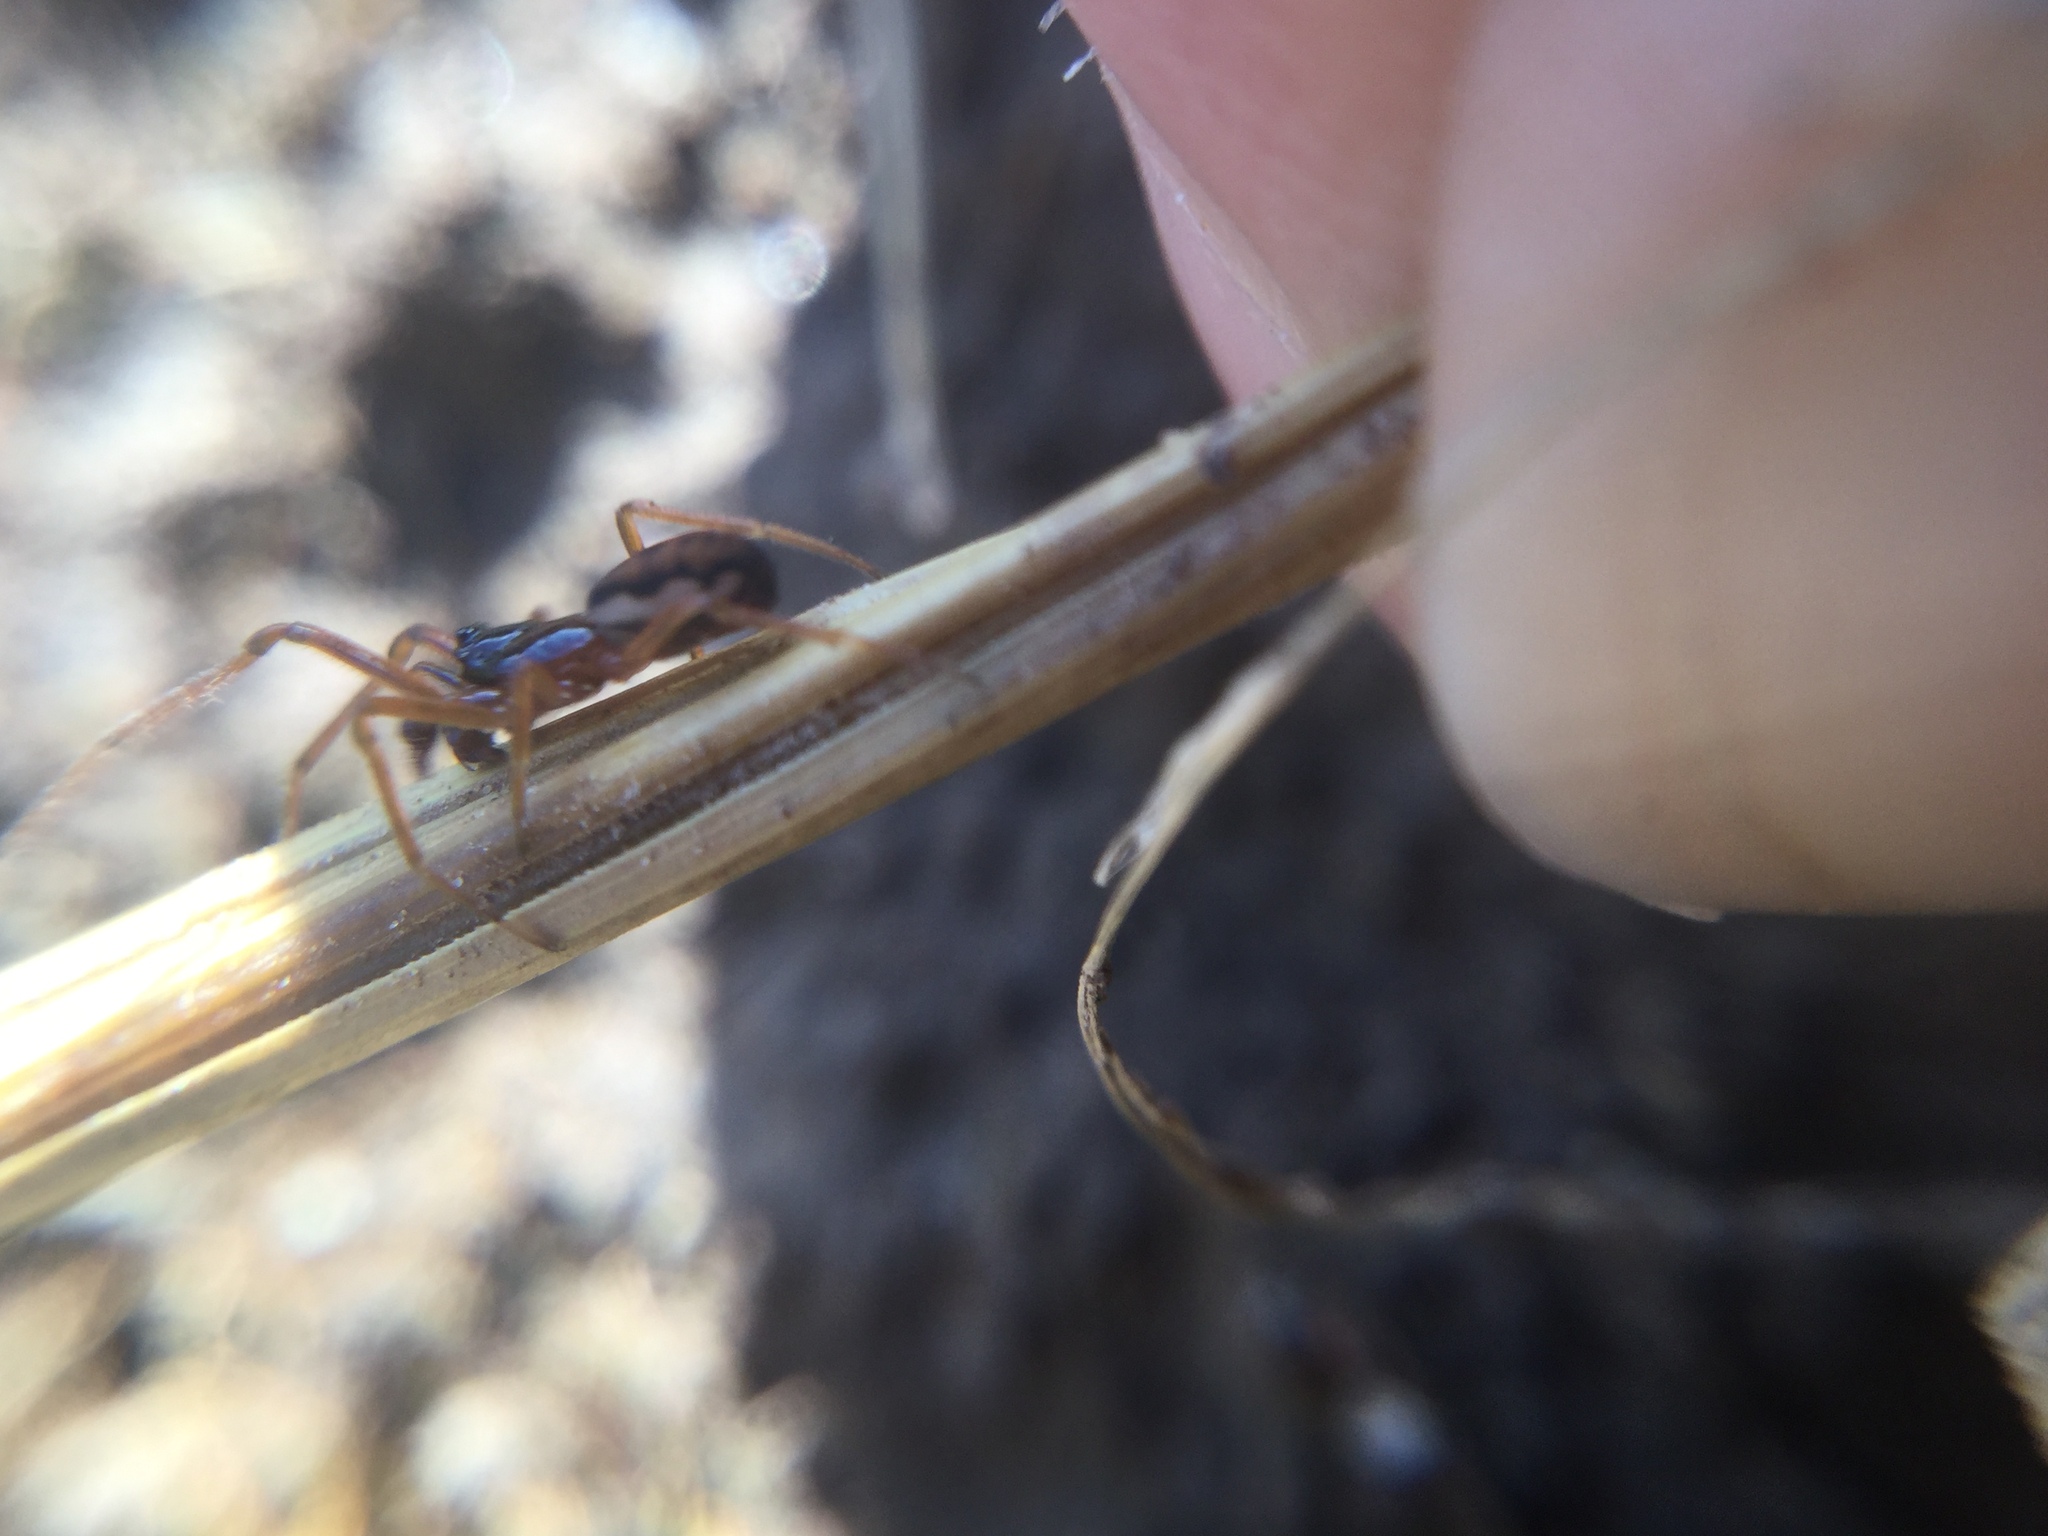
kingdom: Animalia
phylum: Arthropoda
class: Arachnida
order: Araneae
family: Tetragnathidae
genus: Pachygnatha
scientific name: Pachygnatha autumnalis
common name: Big-eyed thick-jawed spider
